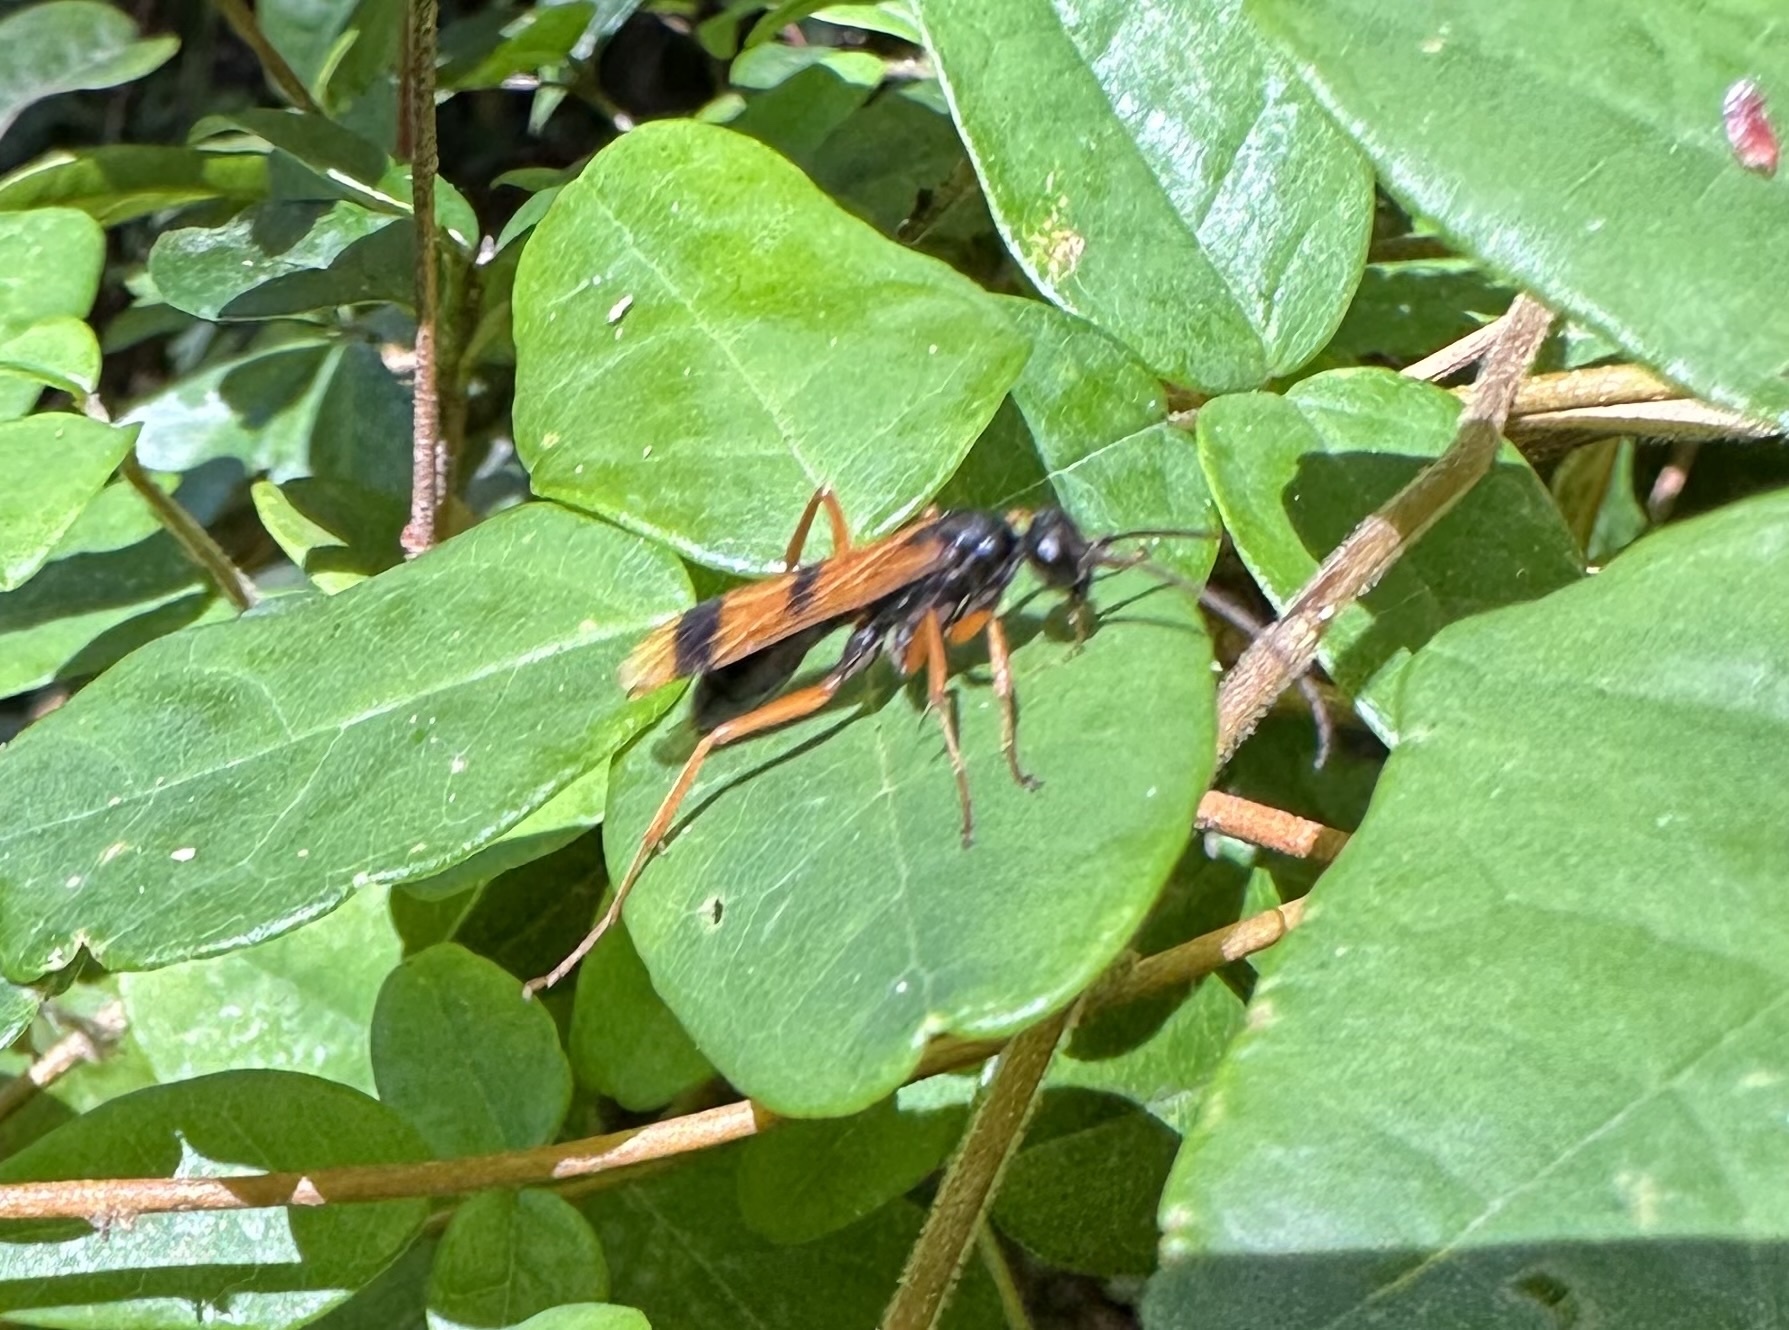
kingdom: Animalia
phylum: Arthropoda
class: Insecta
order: Hymenoptera
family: Pompilidae
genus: Sphictostethus
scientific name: Sphictostethus striatulus
